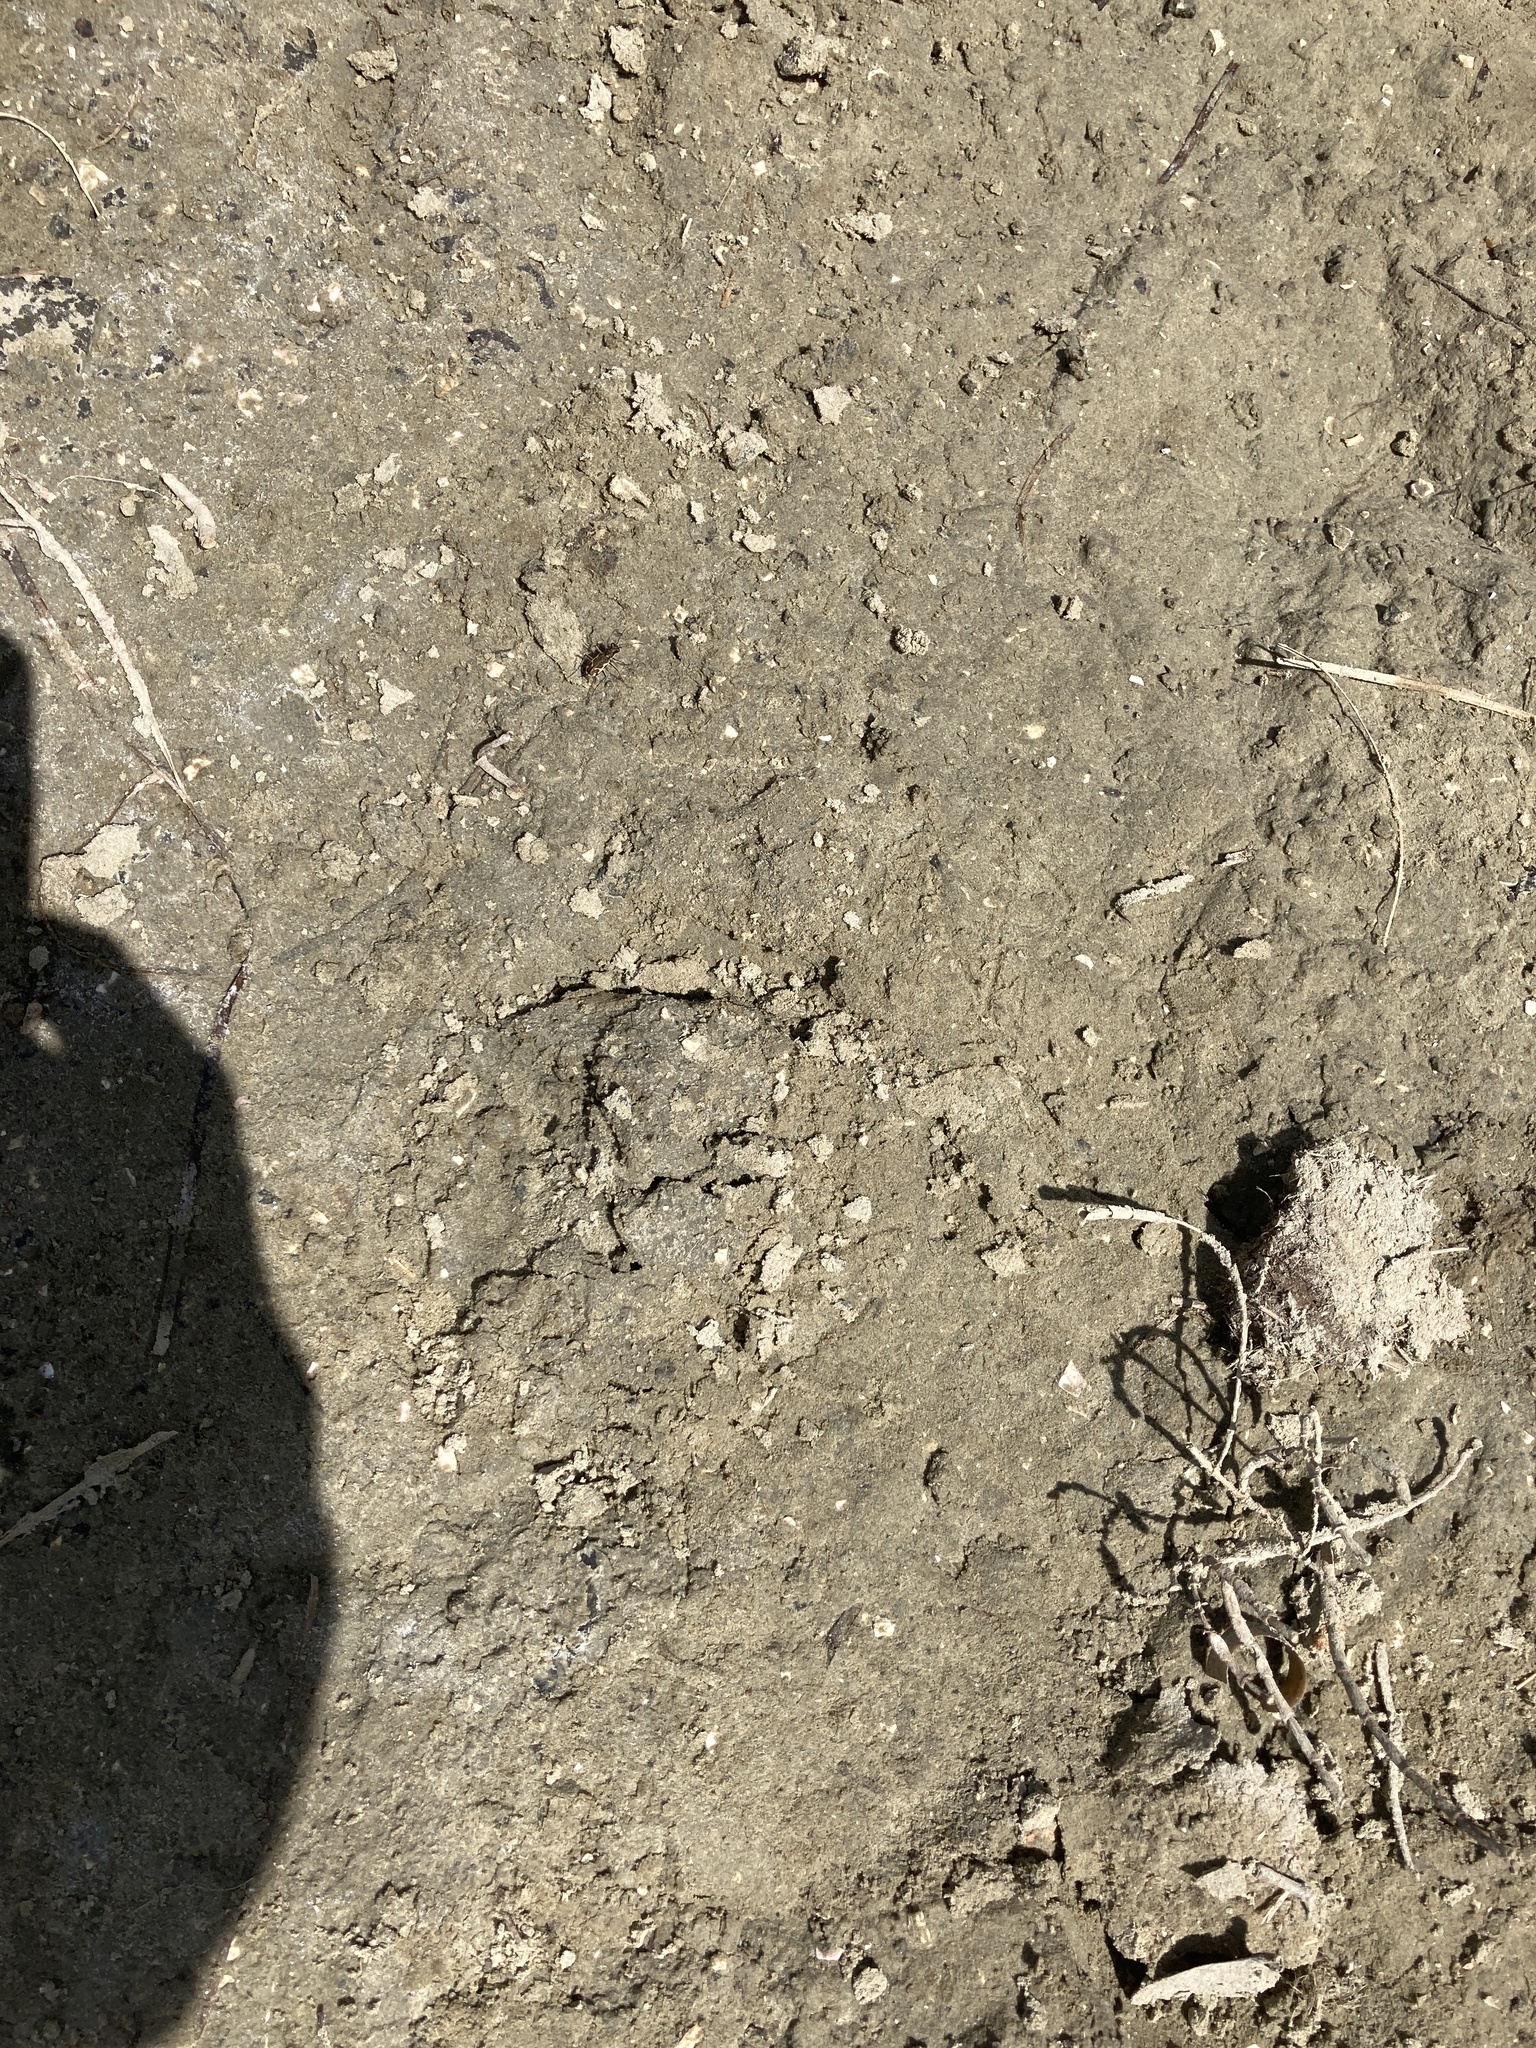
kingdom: Animalia
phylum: Arthropoda
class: Insecta
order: Coleoptera
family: Carabidae
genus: Neocicindela
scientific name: Neocicindela tuberculata
